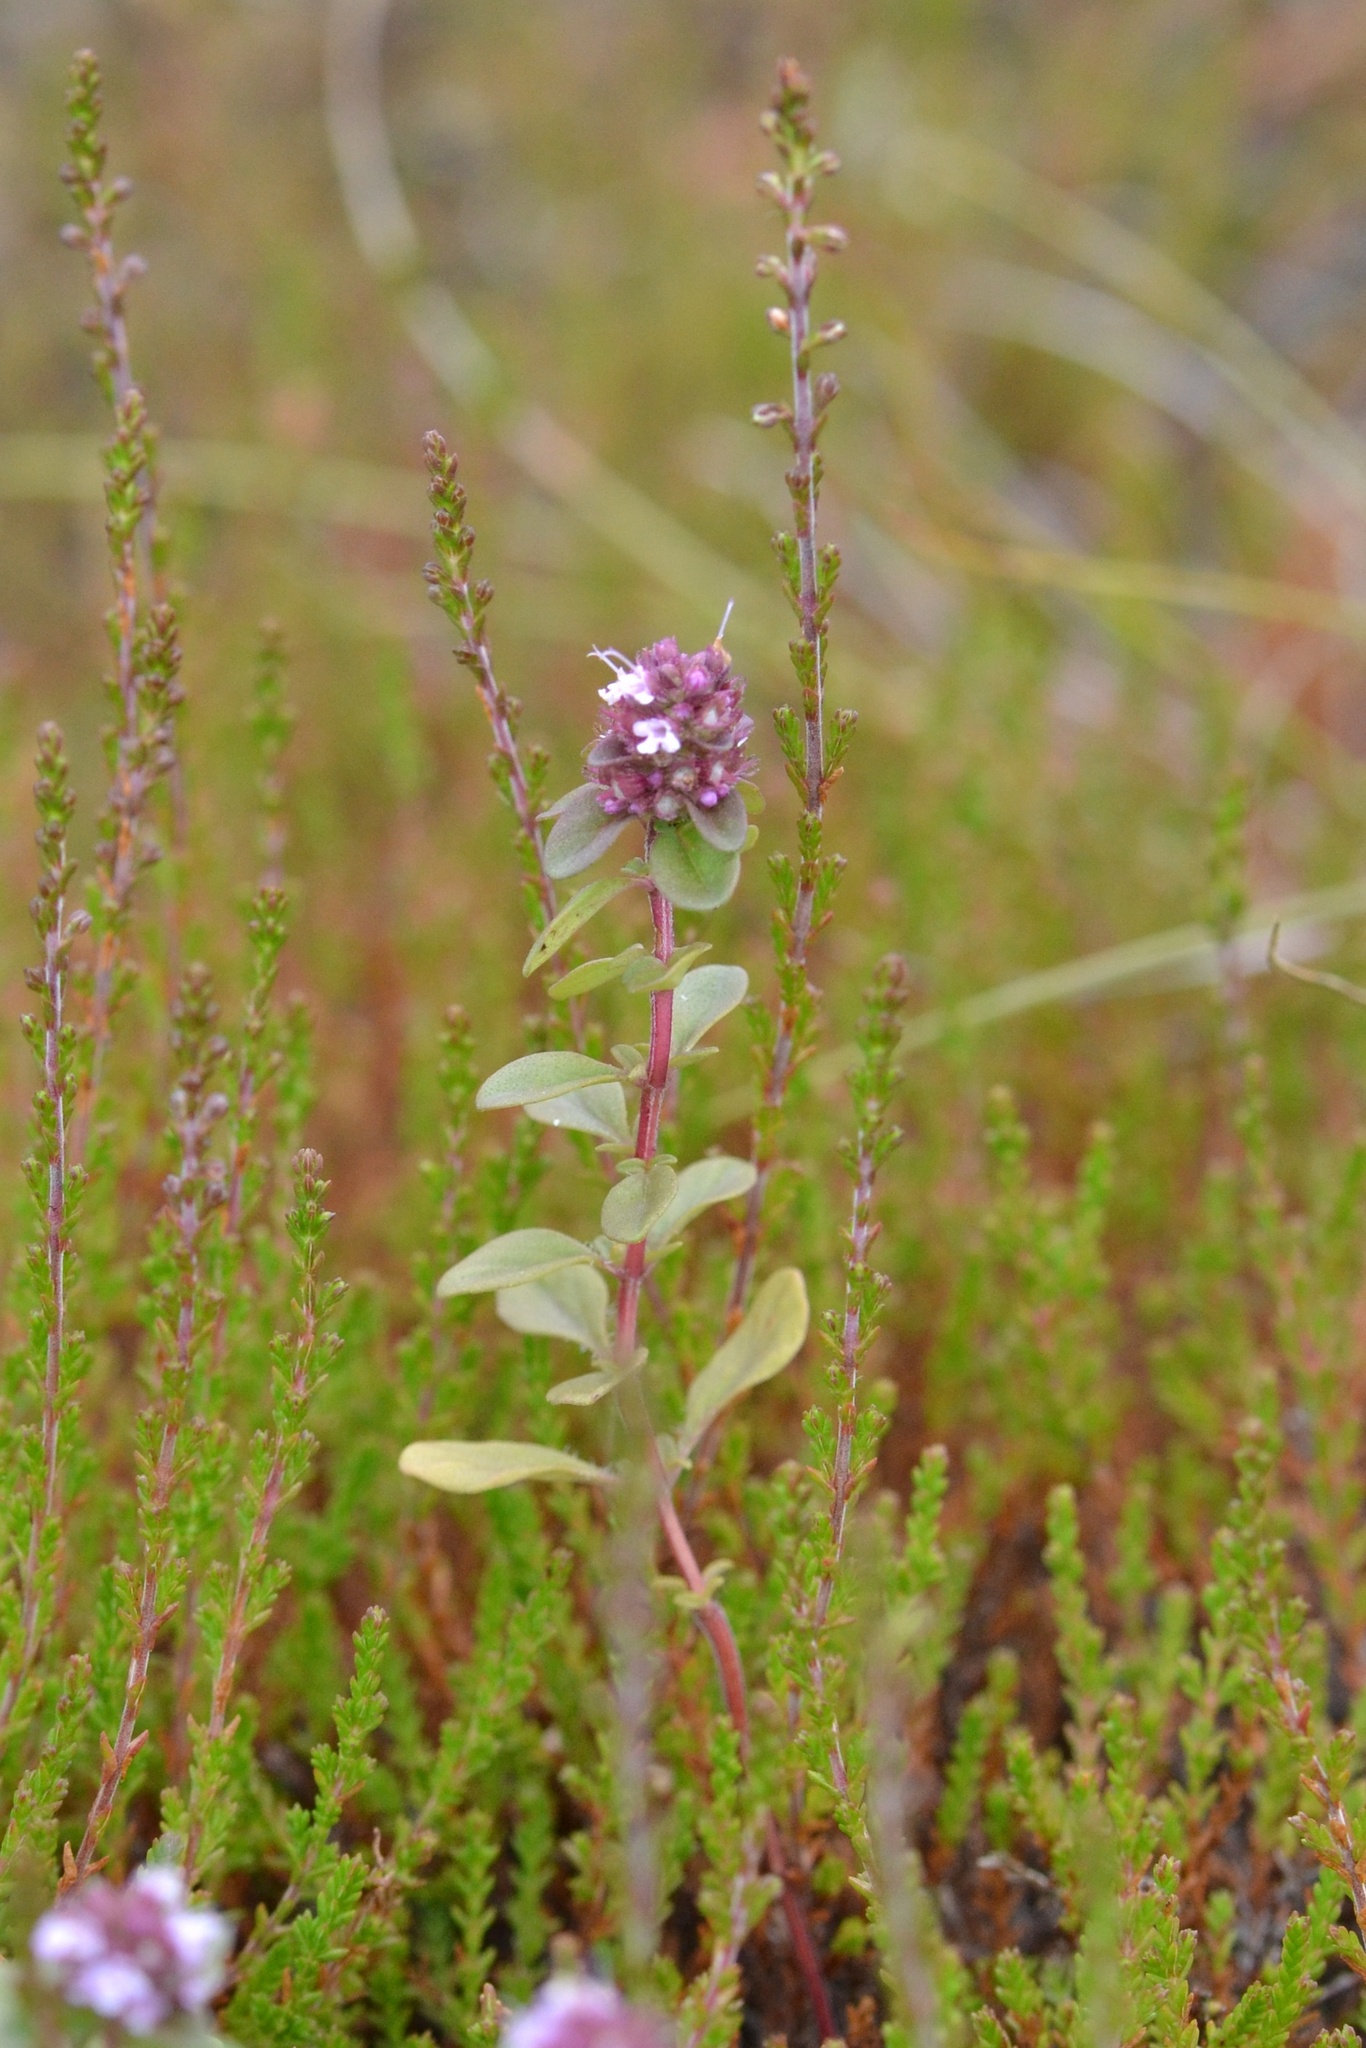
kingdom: Plantae
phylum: Tracheophyta
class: Magnoliopsida
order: Lamiales
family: Lamiaceae
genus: Thymus
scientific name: Thymus pulegioides
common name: Large thyme
